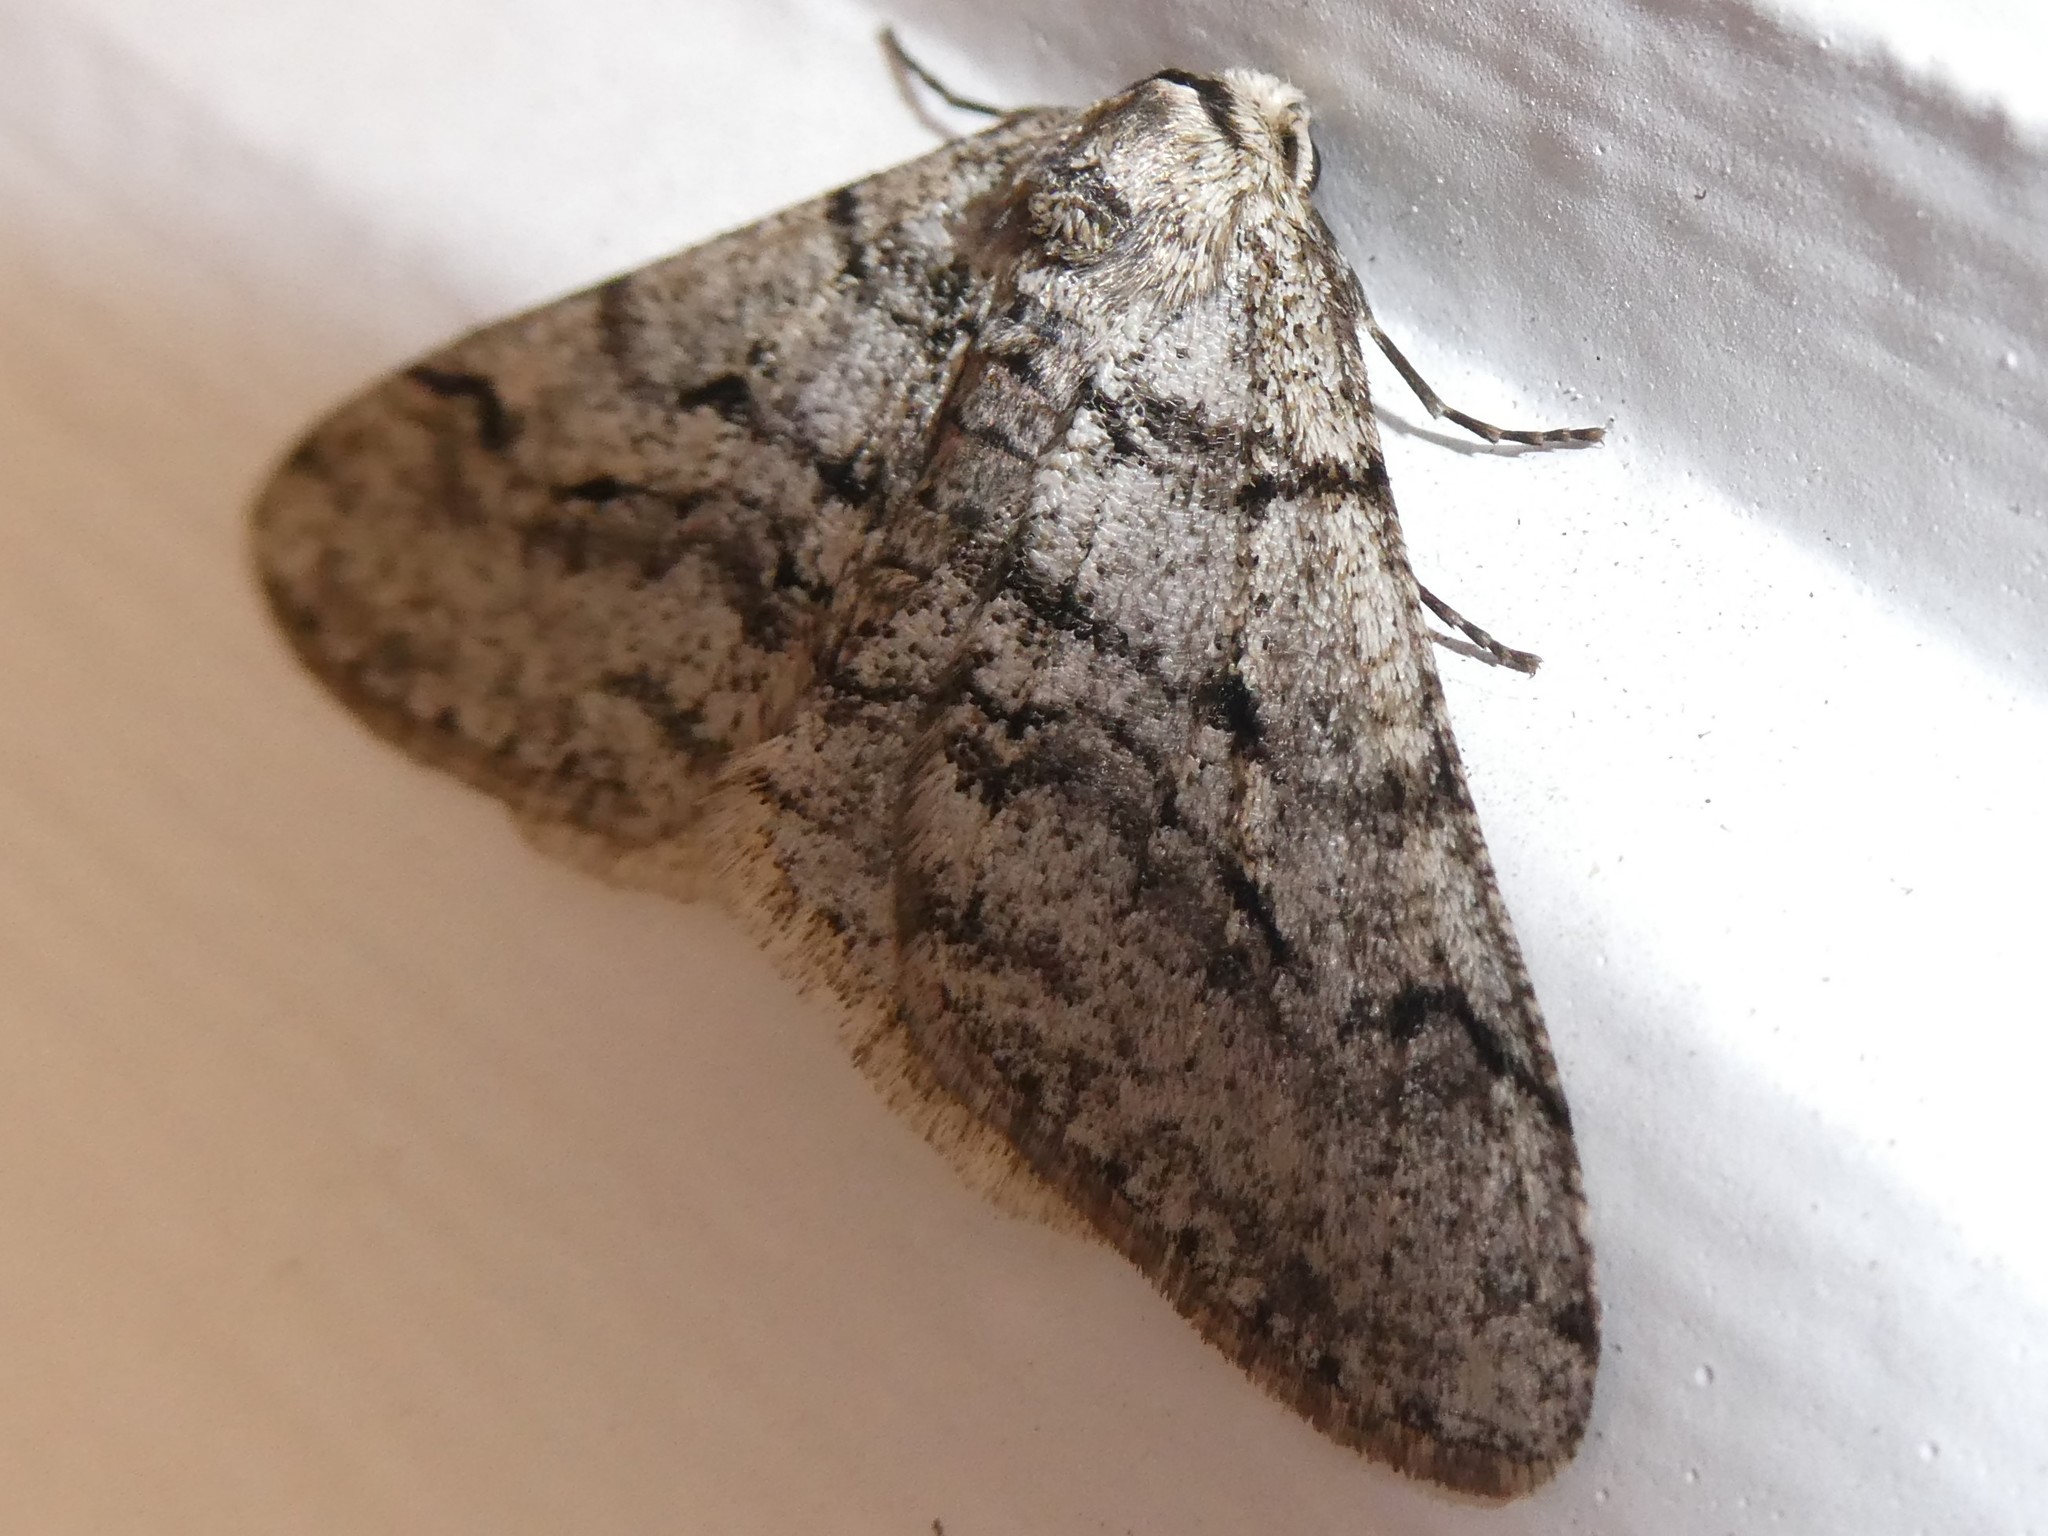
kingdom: Animalia
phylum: Arthropoda
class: Insecta
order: Lepidoptera
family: Geometridae
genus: Phigalia
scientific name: Phigalia strigataria
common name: Small phigalia
